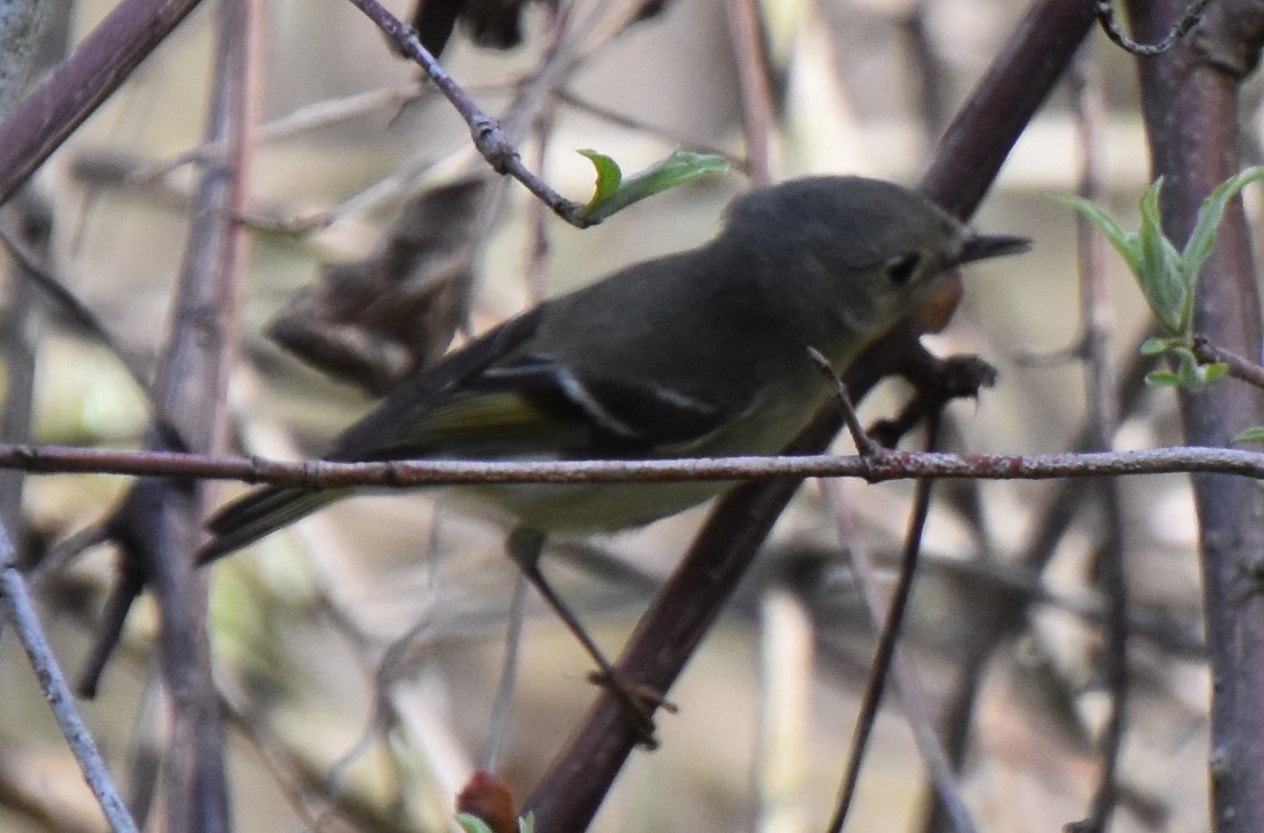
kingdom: Animalia
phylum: Chordata
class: Aves
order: Passeriformes
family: Regulidae
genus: Regulus
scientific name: Regulus calendula
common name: Ruby-crowned kinglet
